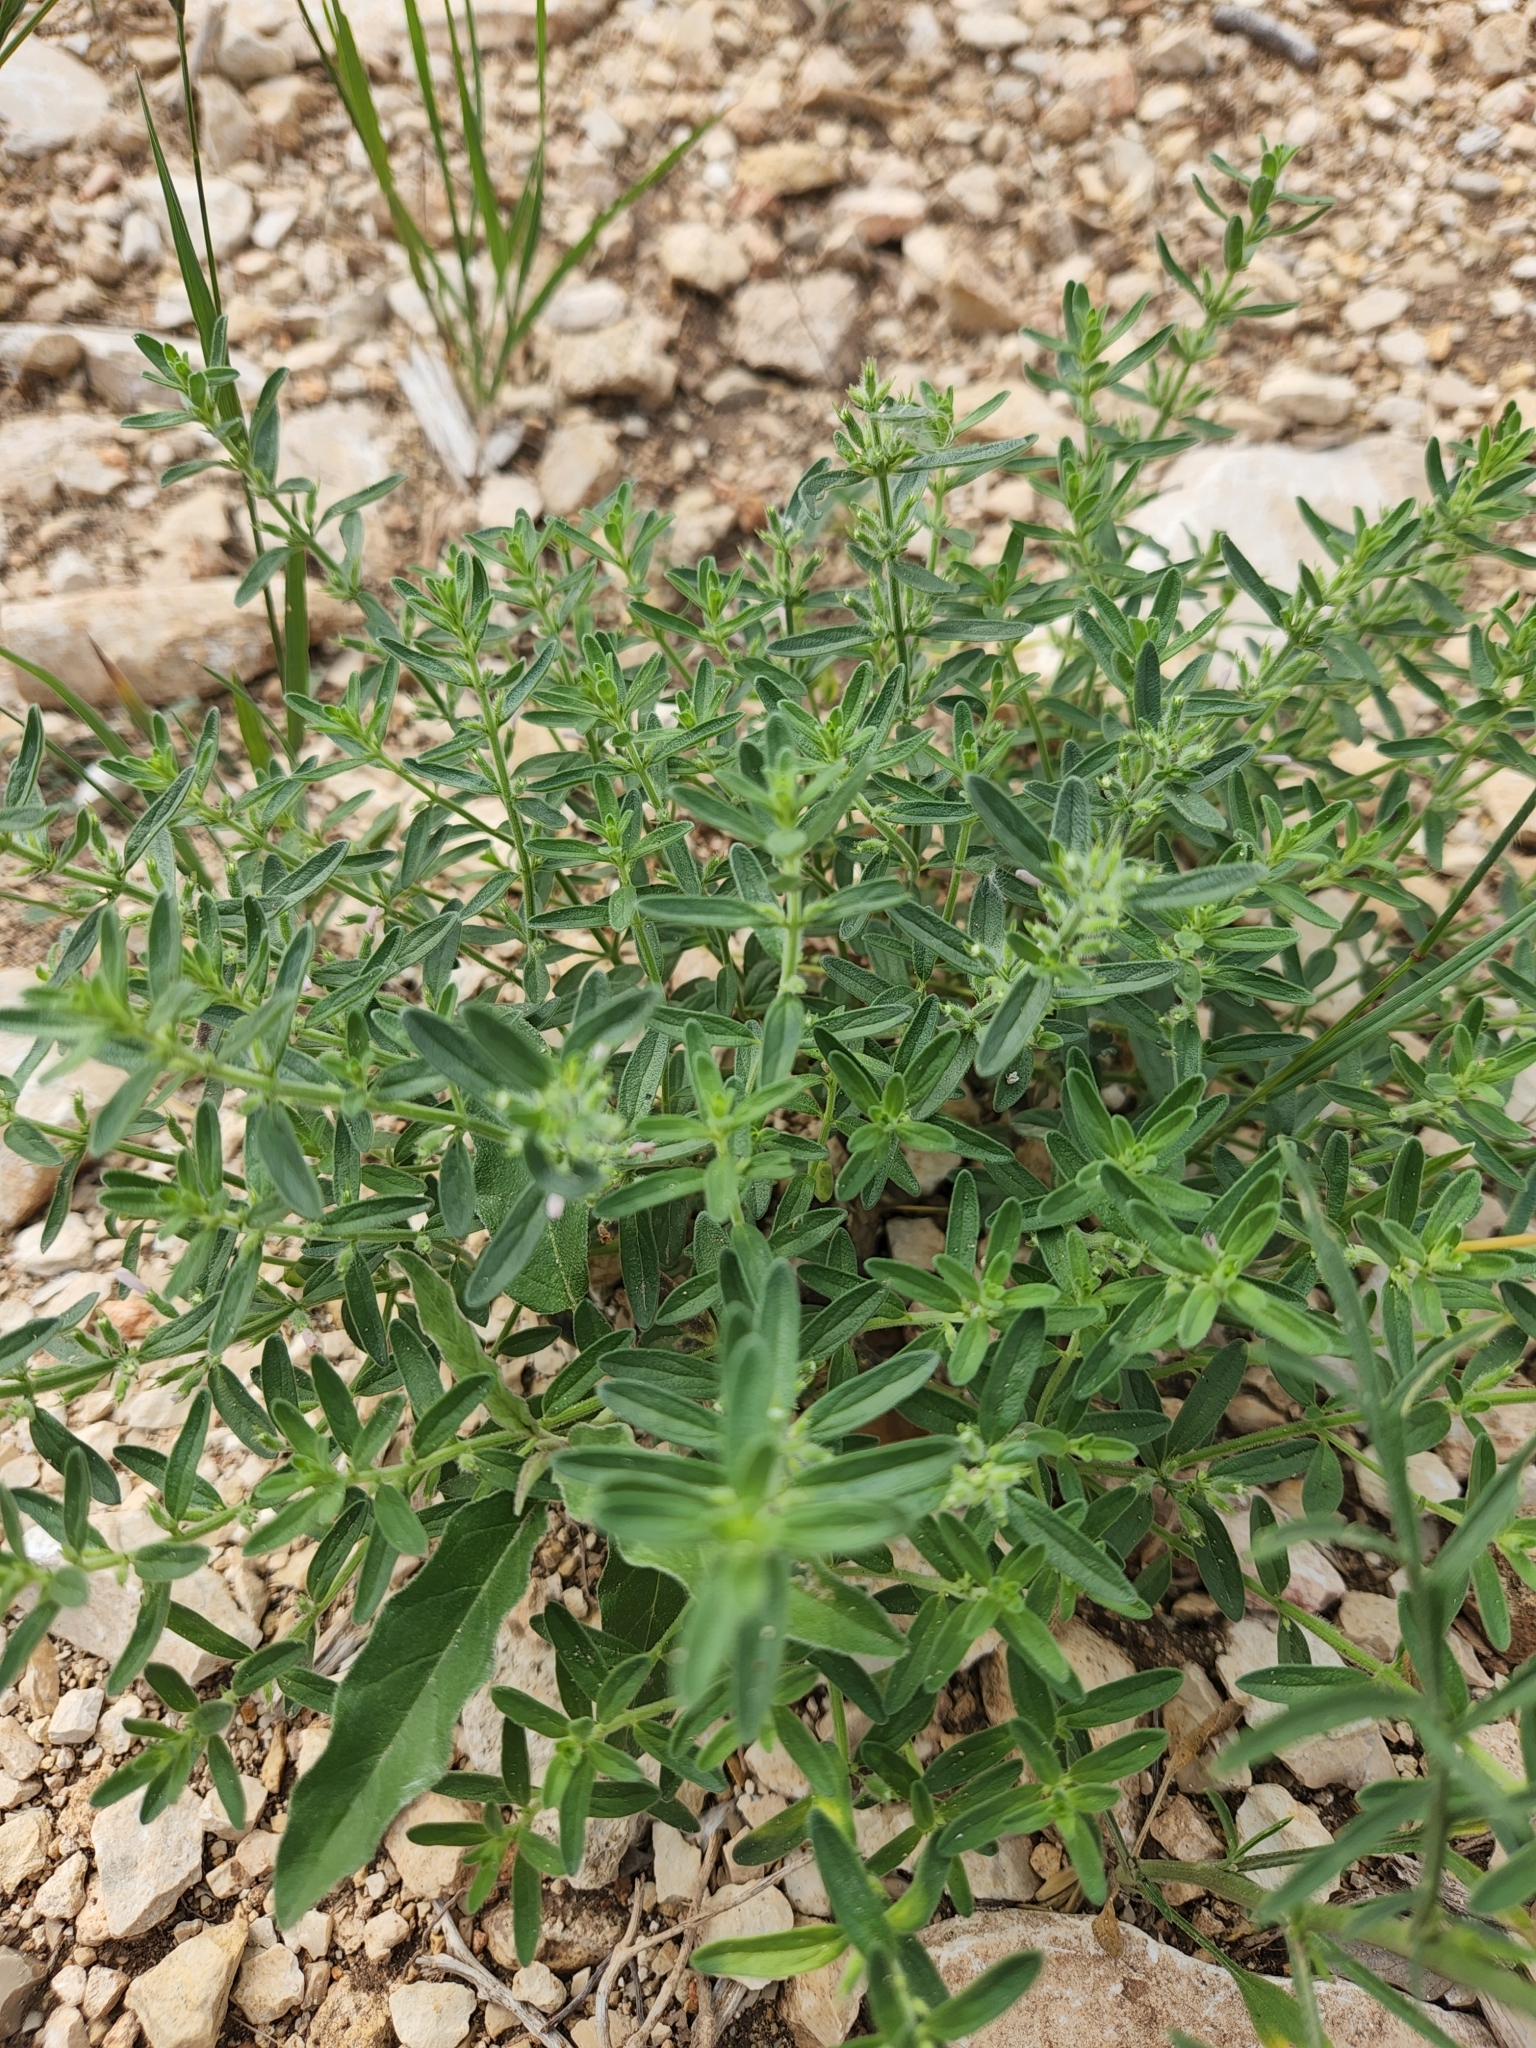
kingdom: Plantae
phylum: Tracheophyta
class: Magnoliopsida
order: Lamiales
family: Lamiaceae
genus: Hedeoma
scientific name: Hedeoma reverchonii
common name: Reverchon's false penny-royal
